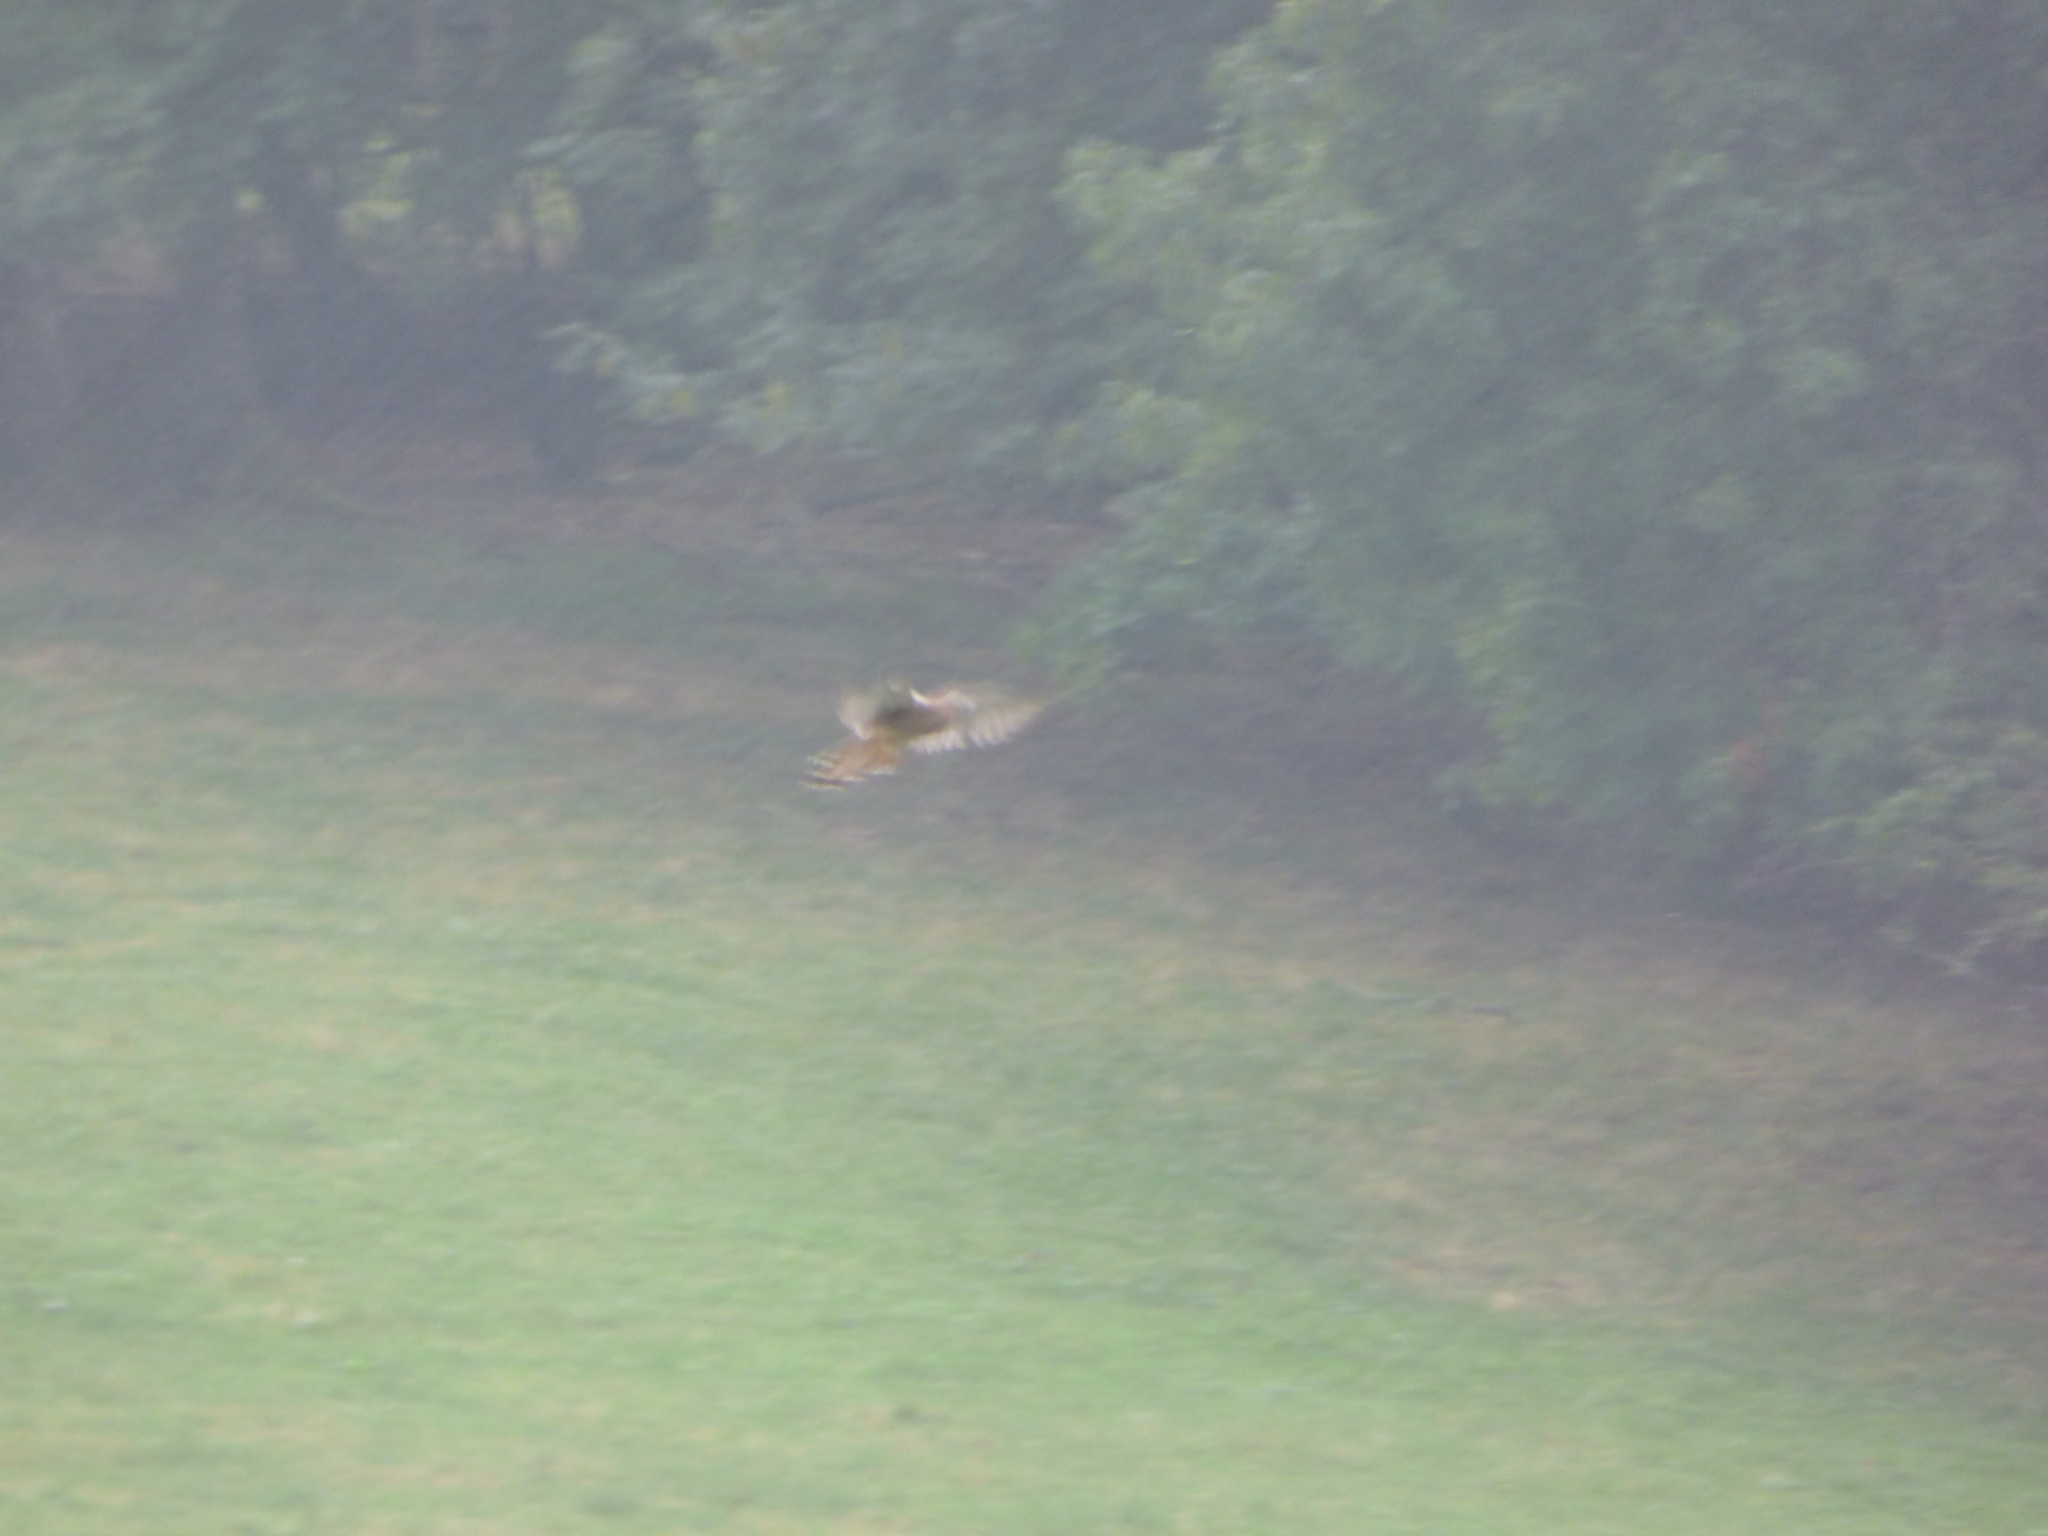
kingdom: Animalia
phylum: Chordata
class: Aves
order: Falconiformes
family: Falconidae
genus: Falco
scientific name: Falco tinnunculus
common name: Common kestrel
